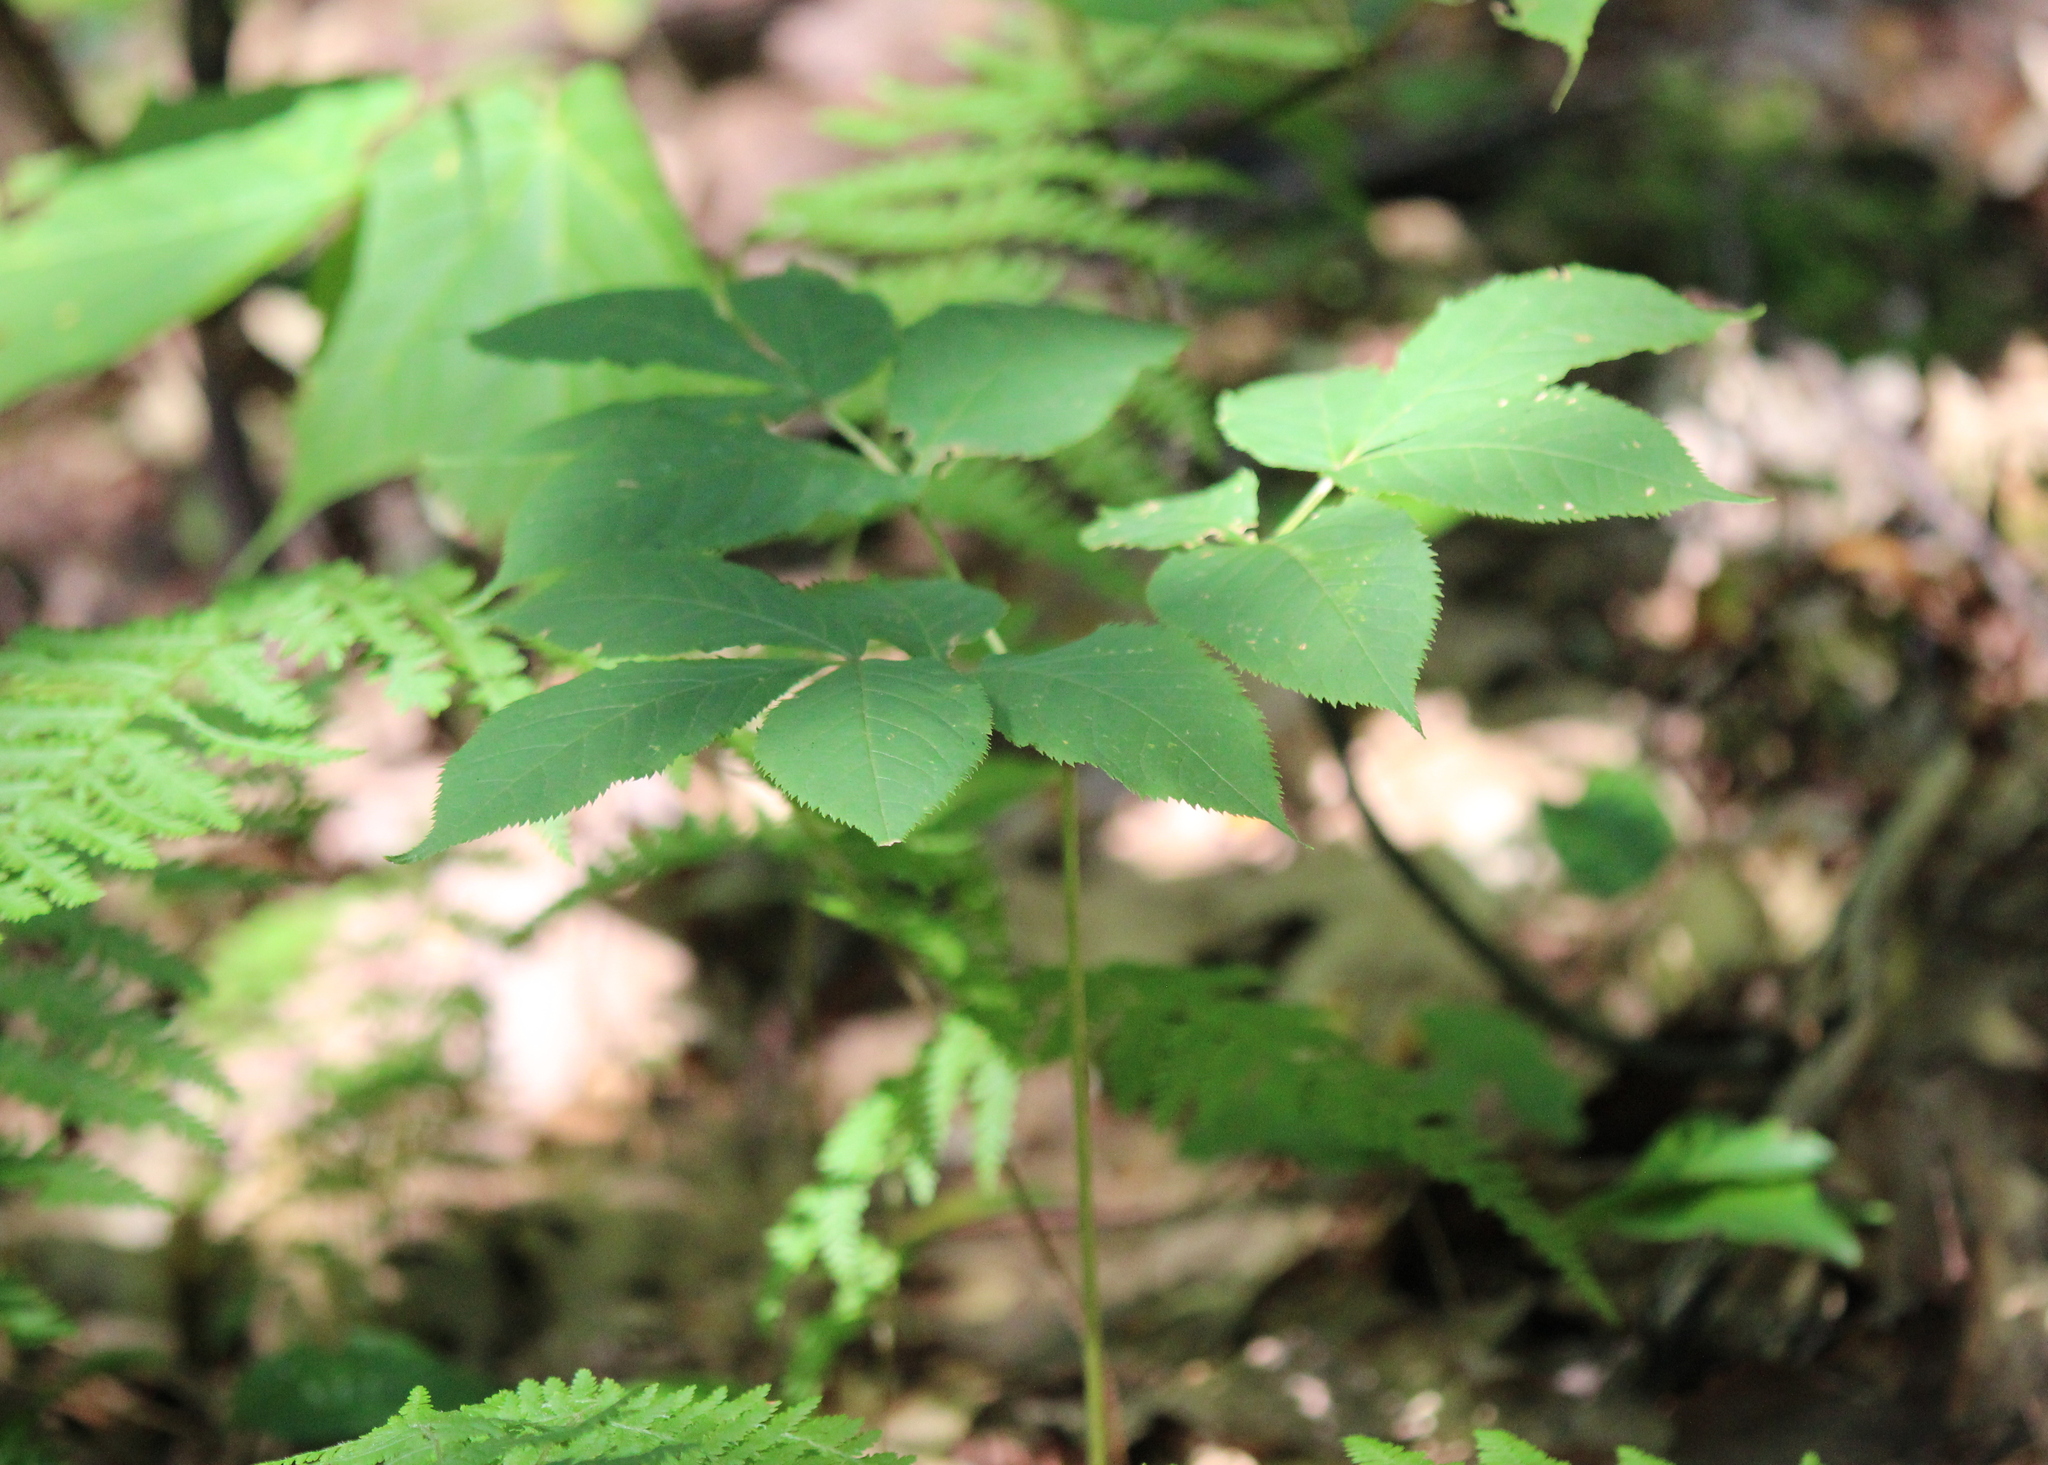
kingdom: Plantae
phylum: Tracheophyta
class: Magnoliopsida
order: Apiales
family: Araliaceae
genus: Aralia
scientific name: Aralia nudicaulis
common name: Wild sarsaparilla
